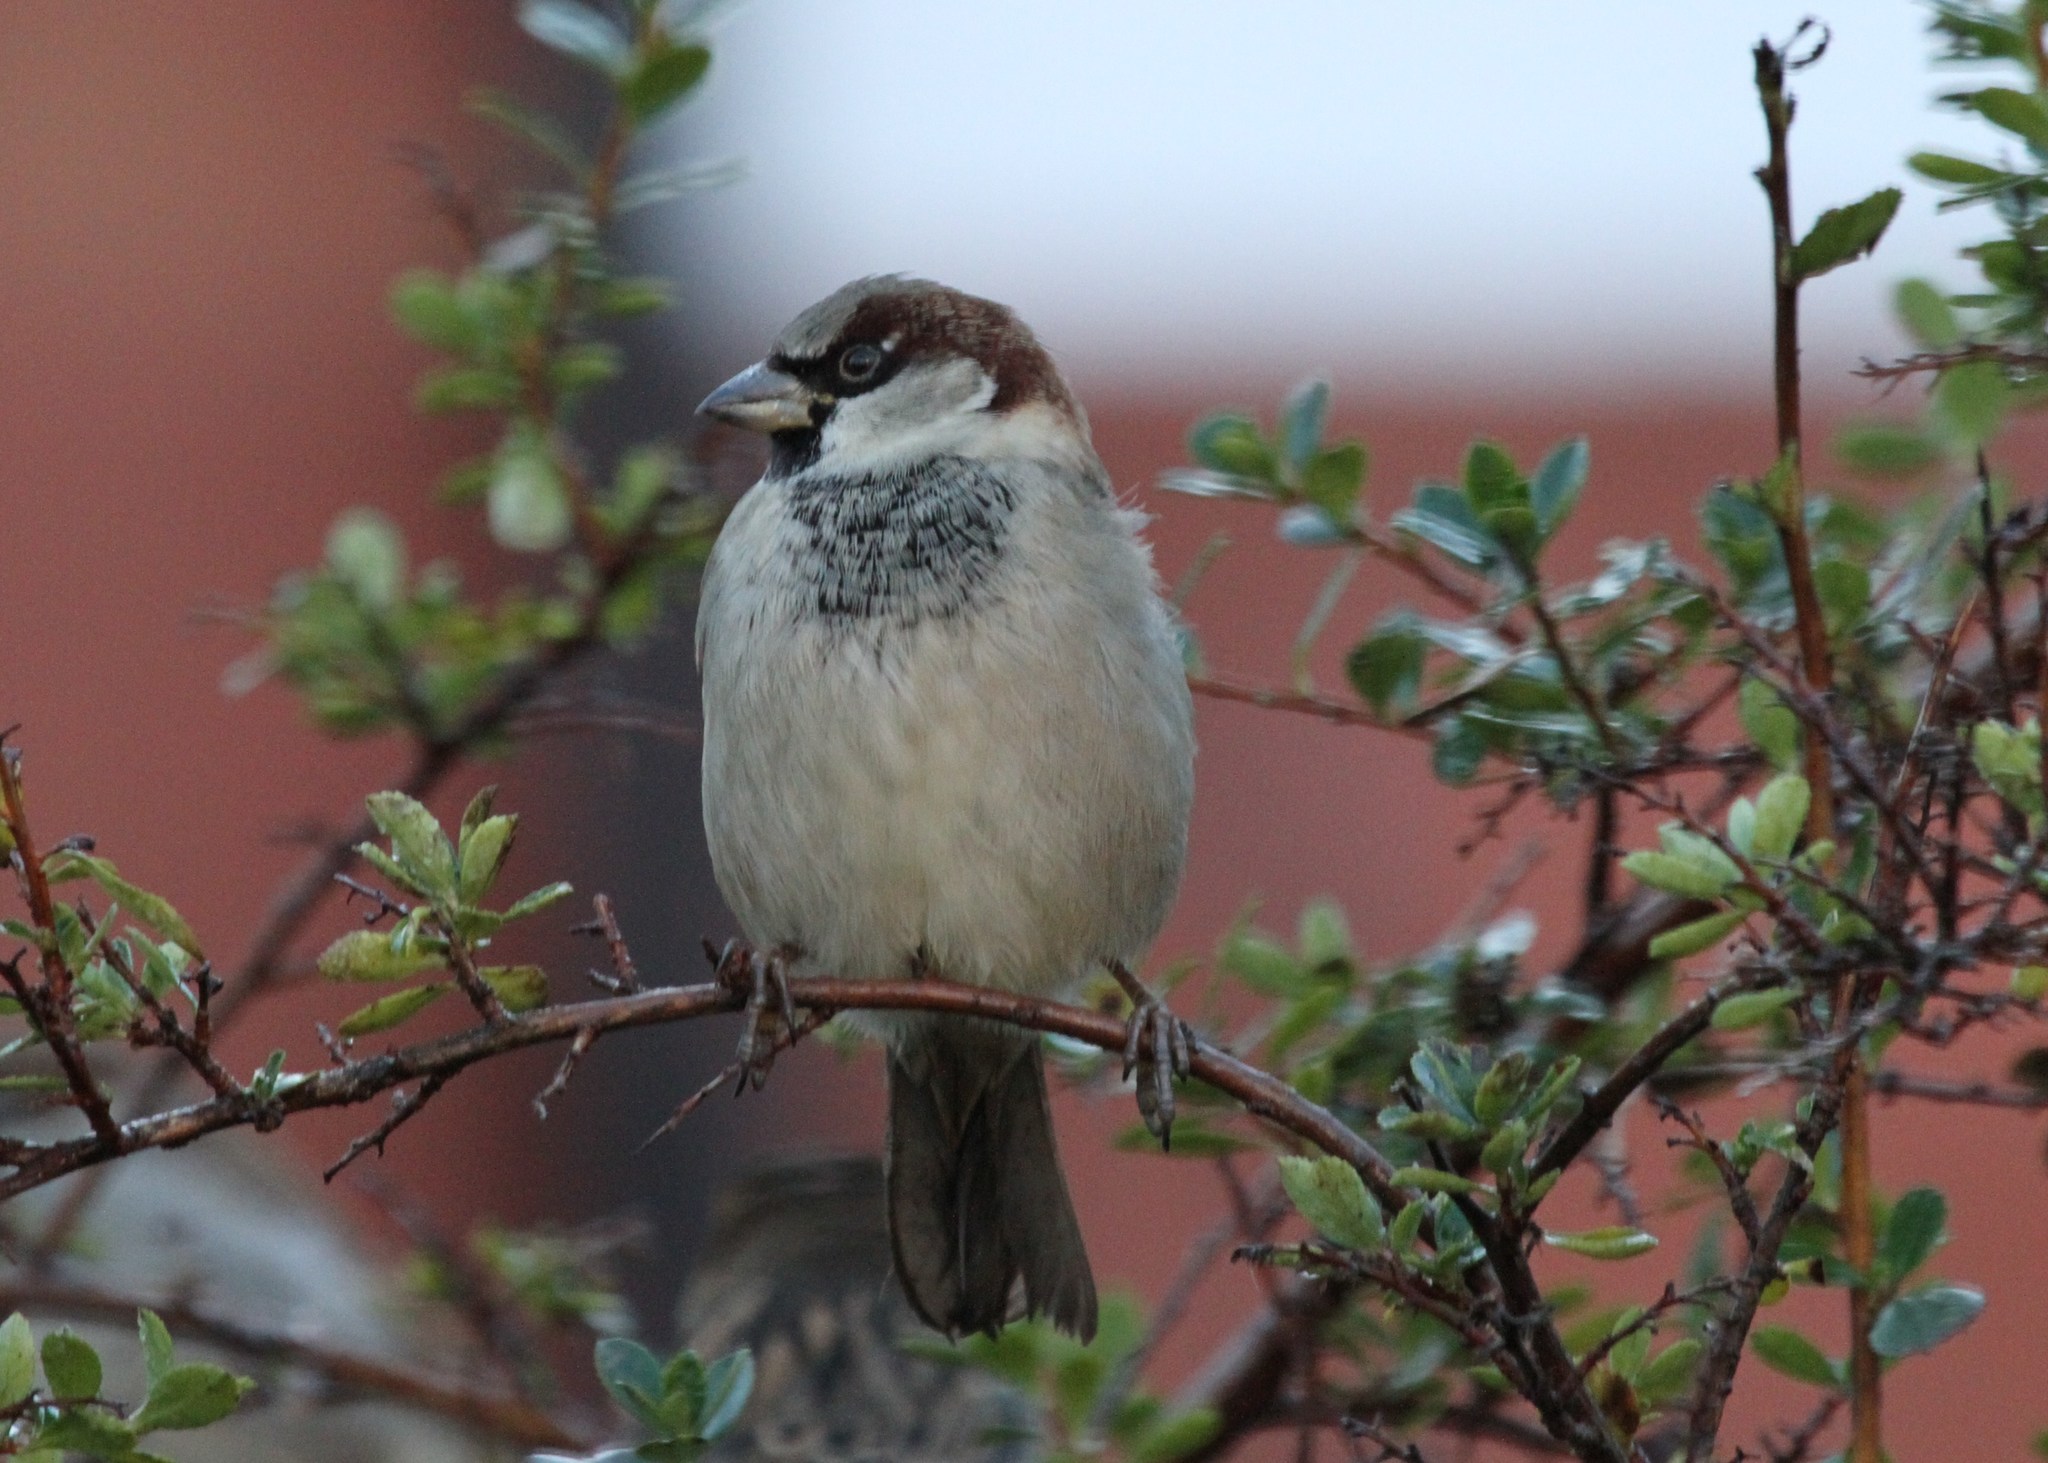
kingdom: Animalia
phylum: Chordata
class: Aves
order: Passeriformes
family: Passeridae
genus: Passer
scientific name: Passer domesticus
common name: House sparrow
